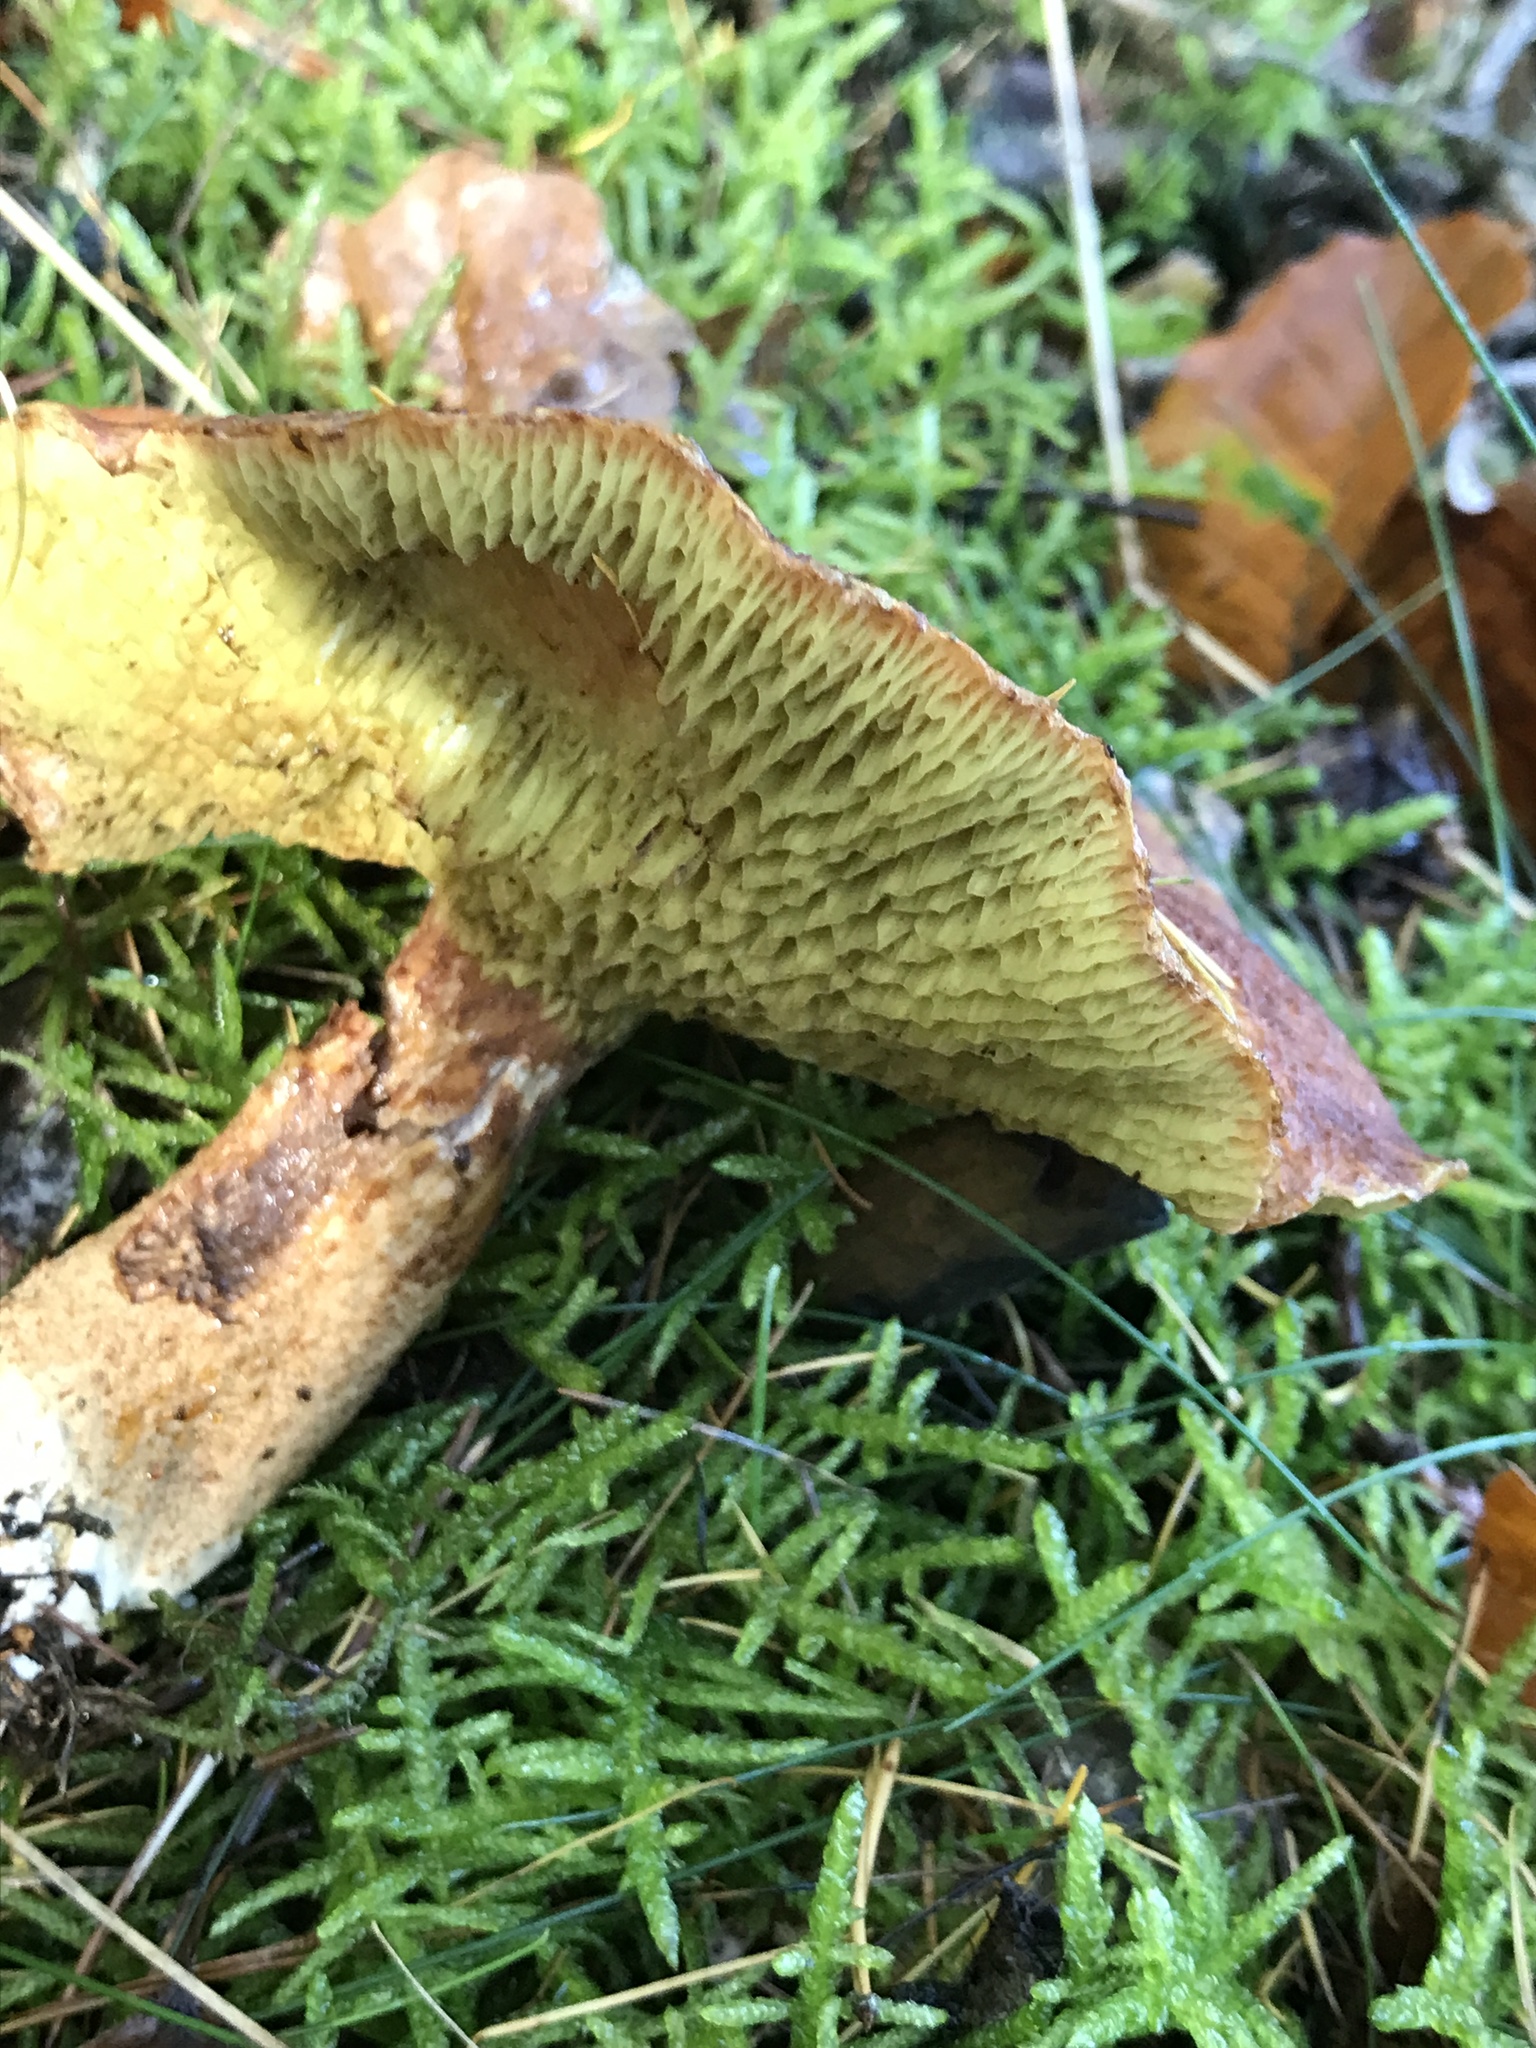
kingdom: Fungi
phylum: Basidiomycota
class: Agaricomycetes
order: Boletales
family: Suillaceae
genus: Suillus
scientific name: Suillus cavipes
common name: Hollow bolete
